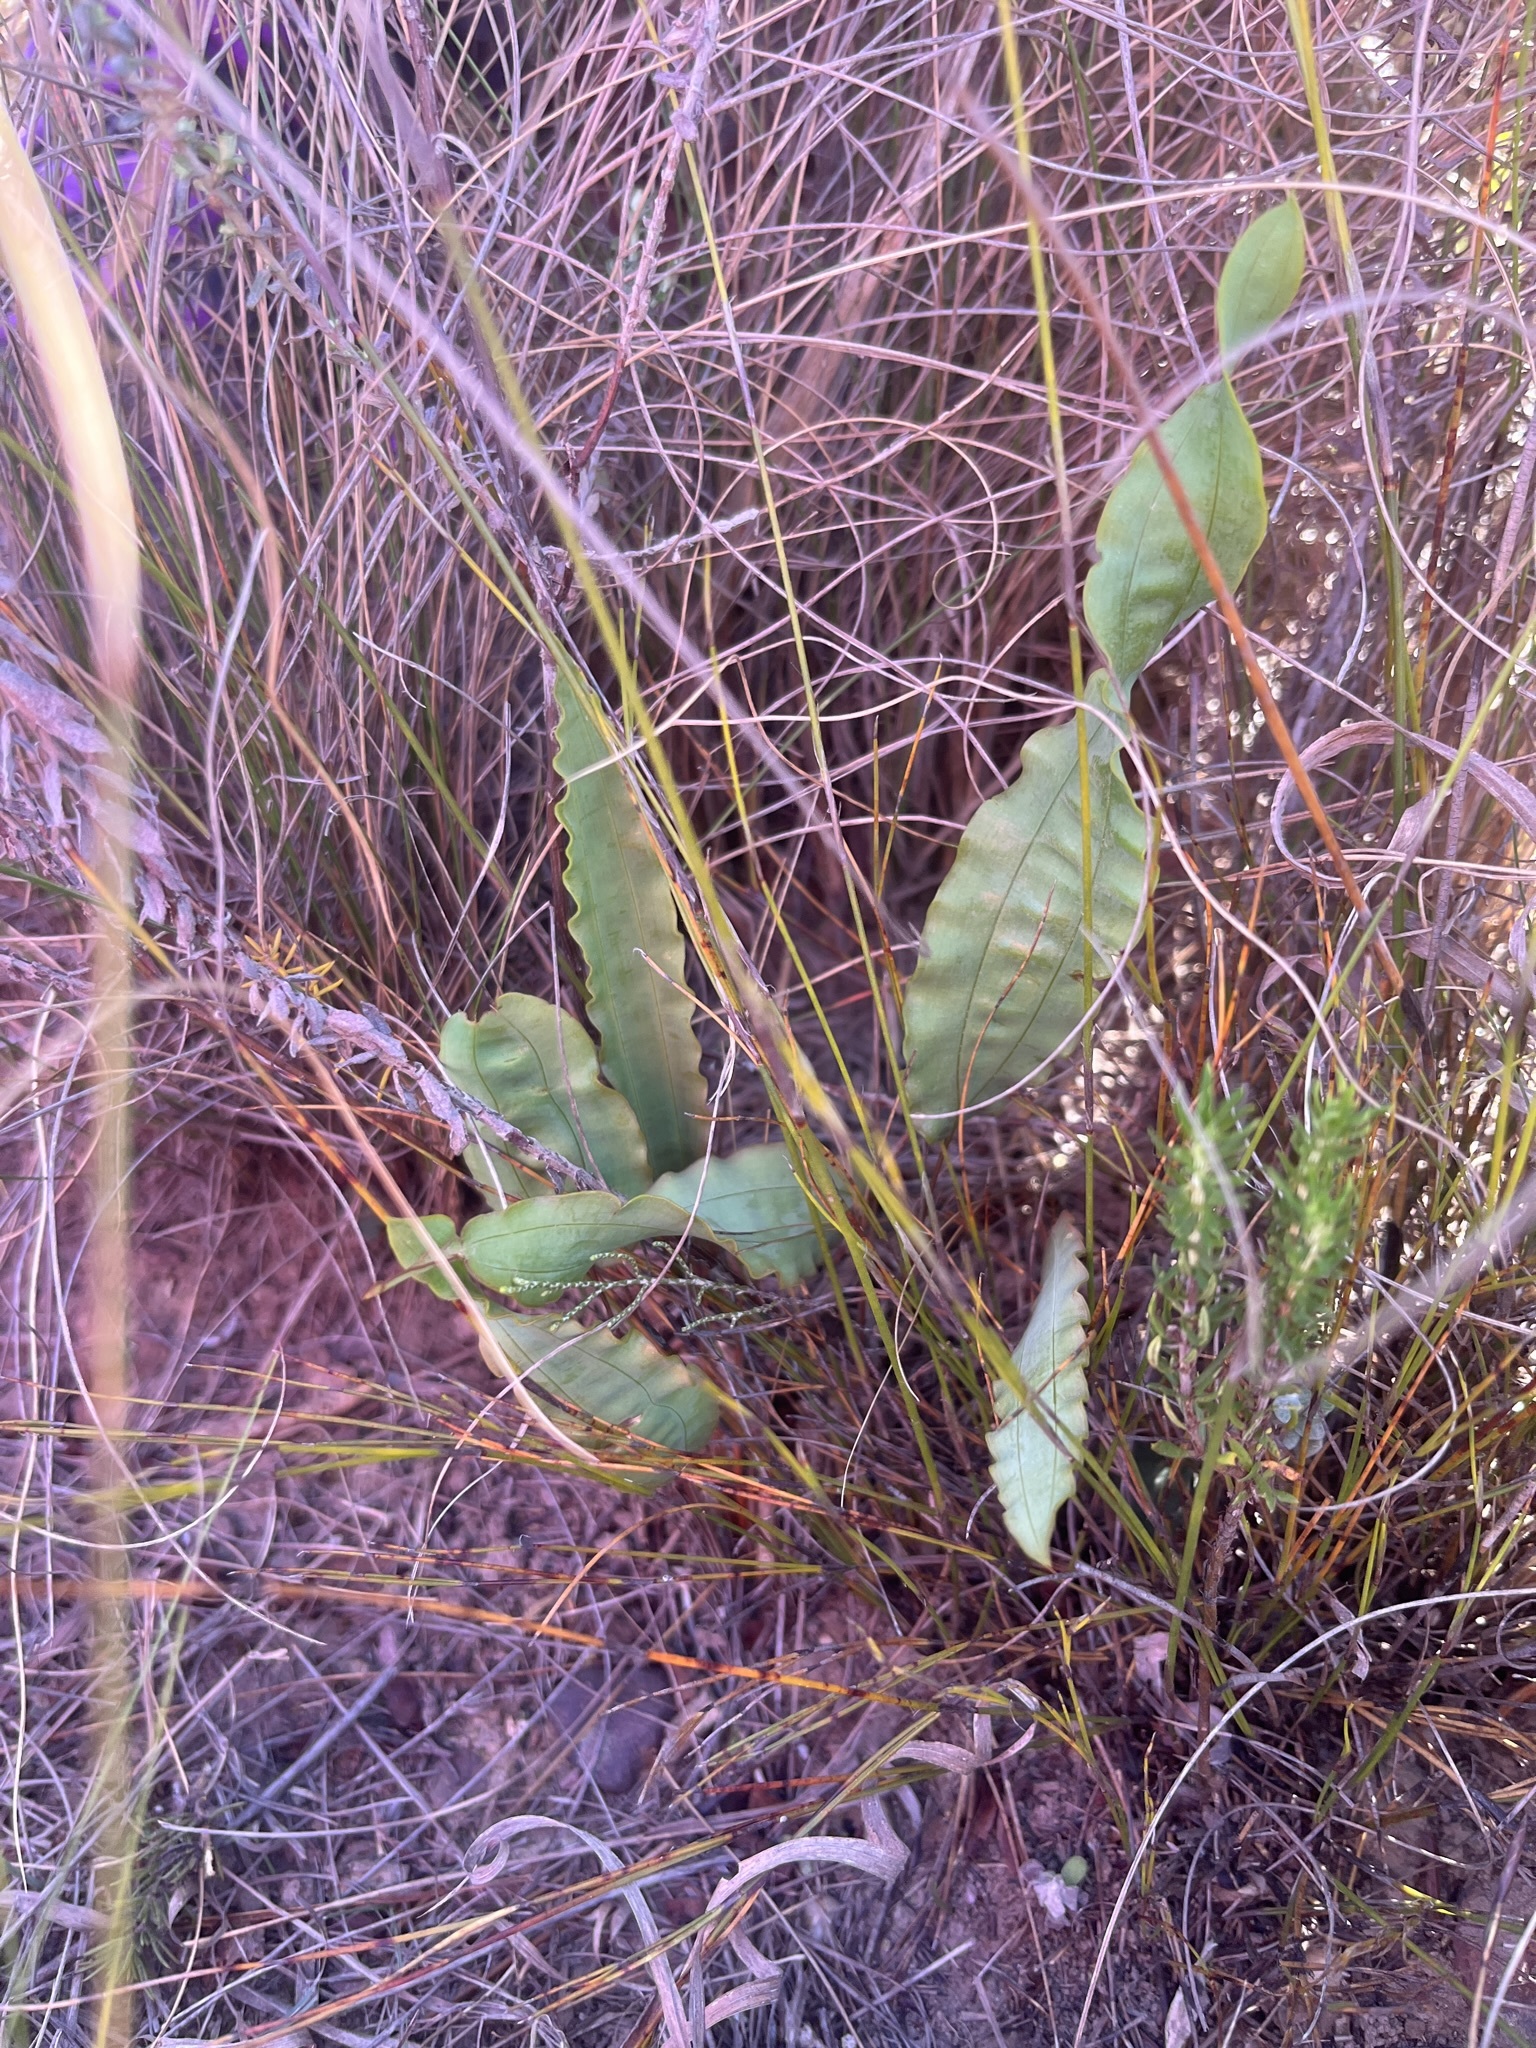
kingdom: Plantae
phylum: Tracheophyta
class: Liliopsida
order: Asparagales
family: Iridaceae
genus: Tritoniopsis
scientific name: Tritoniopsis flexuosa
